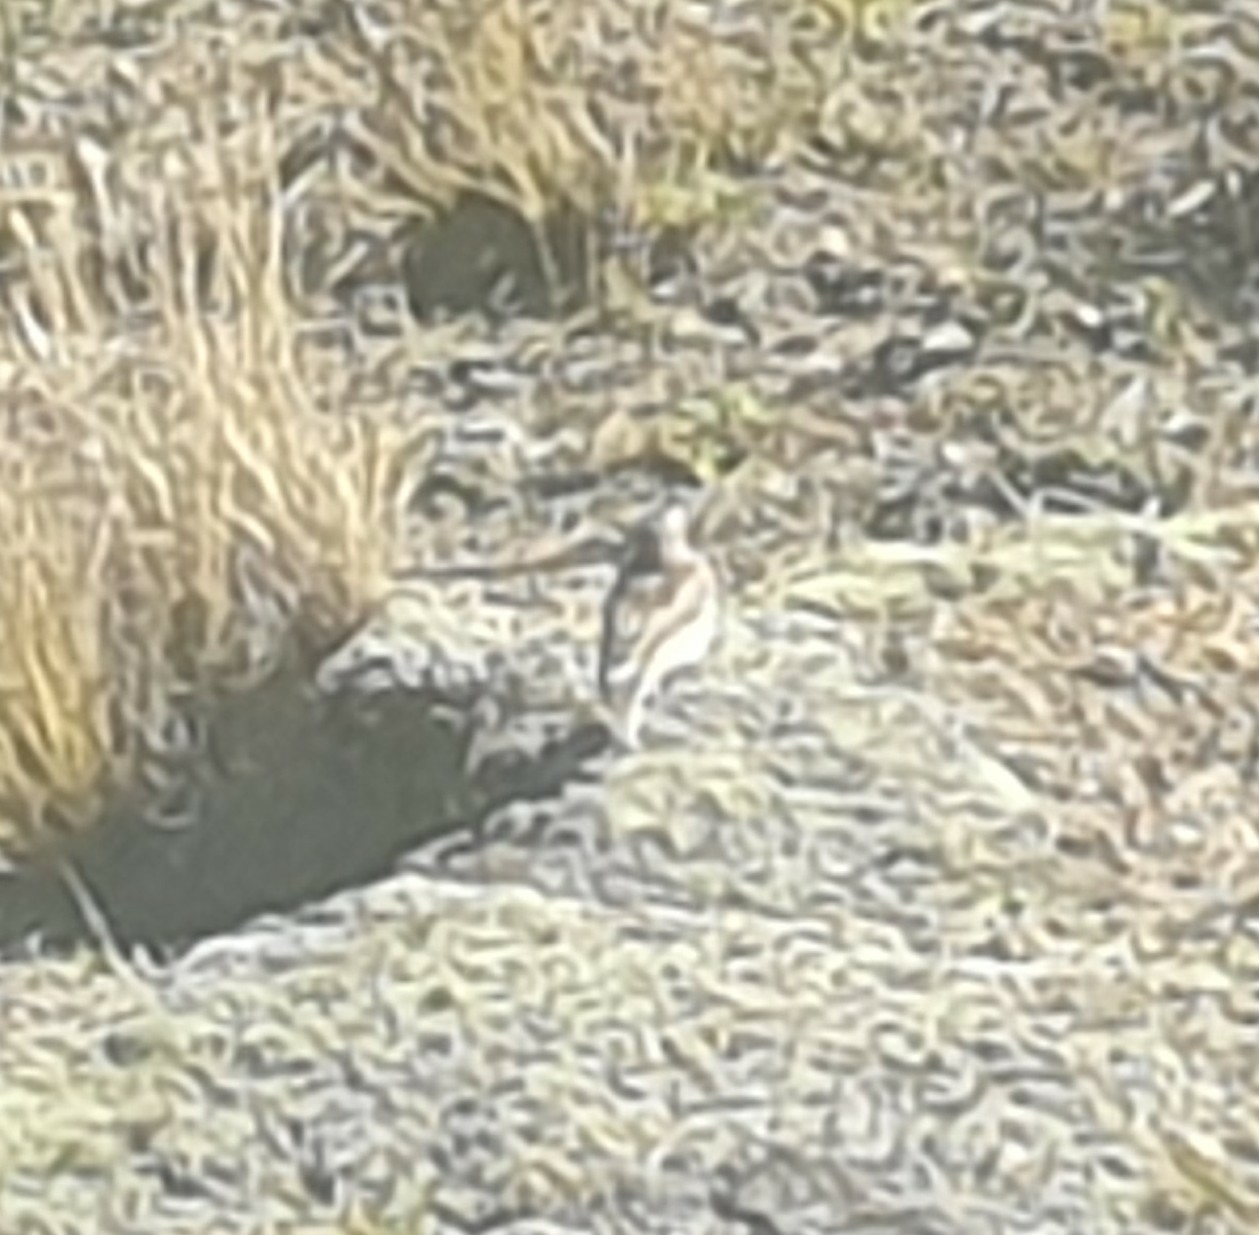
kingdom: Animalia
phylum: Chordata
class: Aves
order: Passeriformes
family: Motacillidae
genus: Anthus
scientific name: Anthus novaeseelandiae
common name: New zealand pipit
